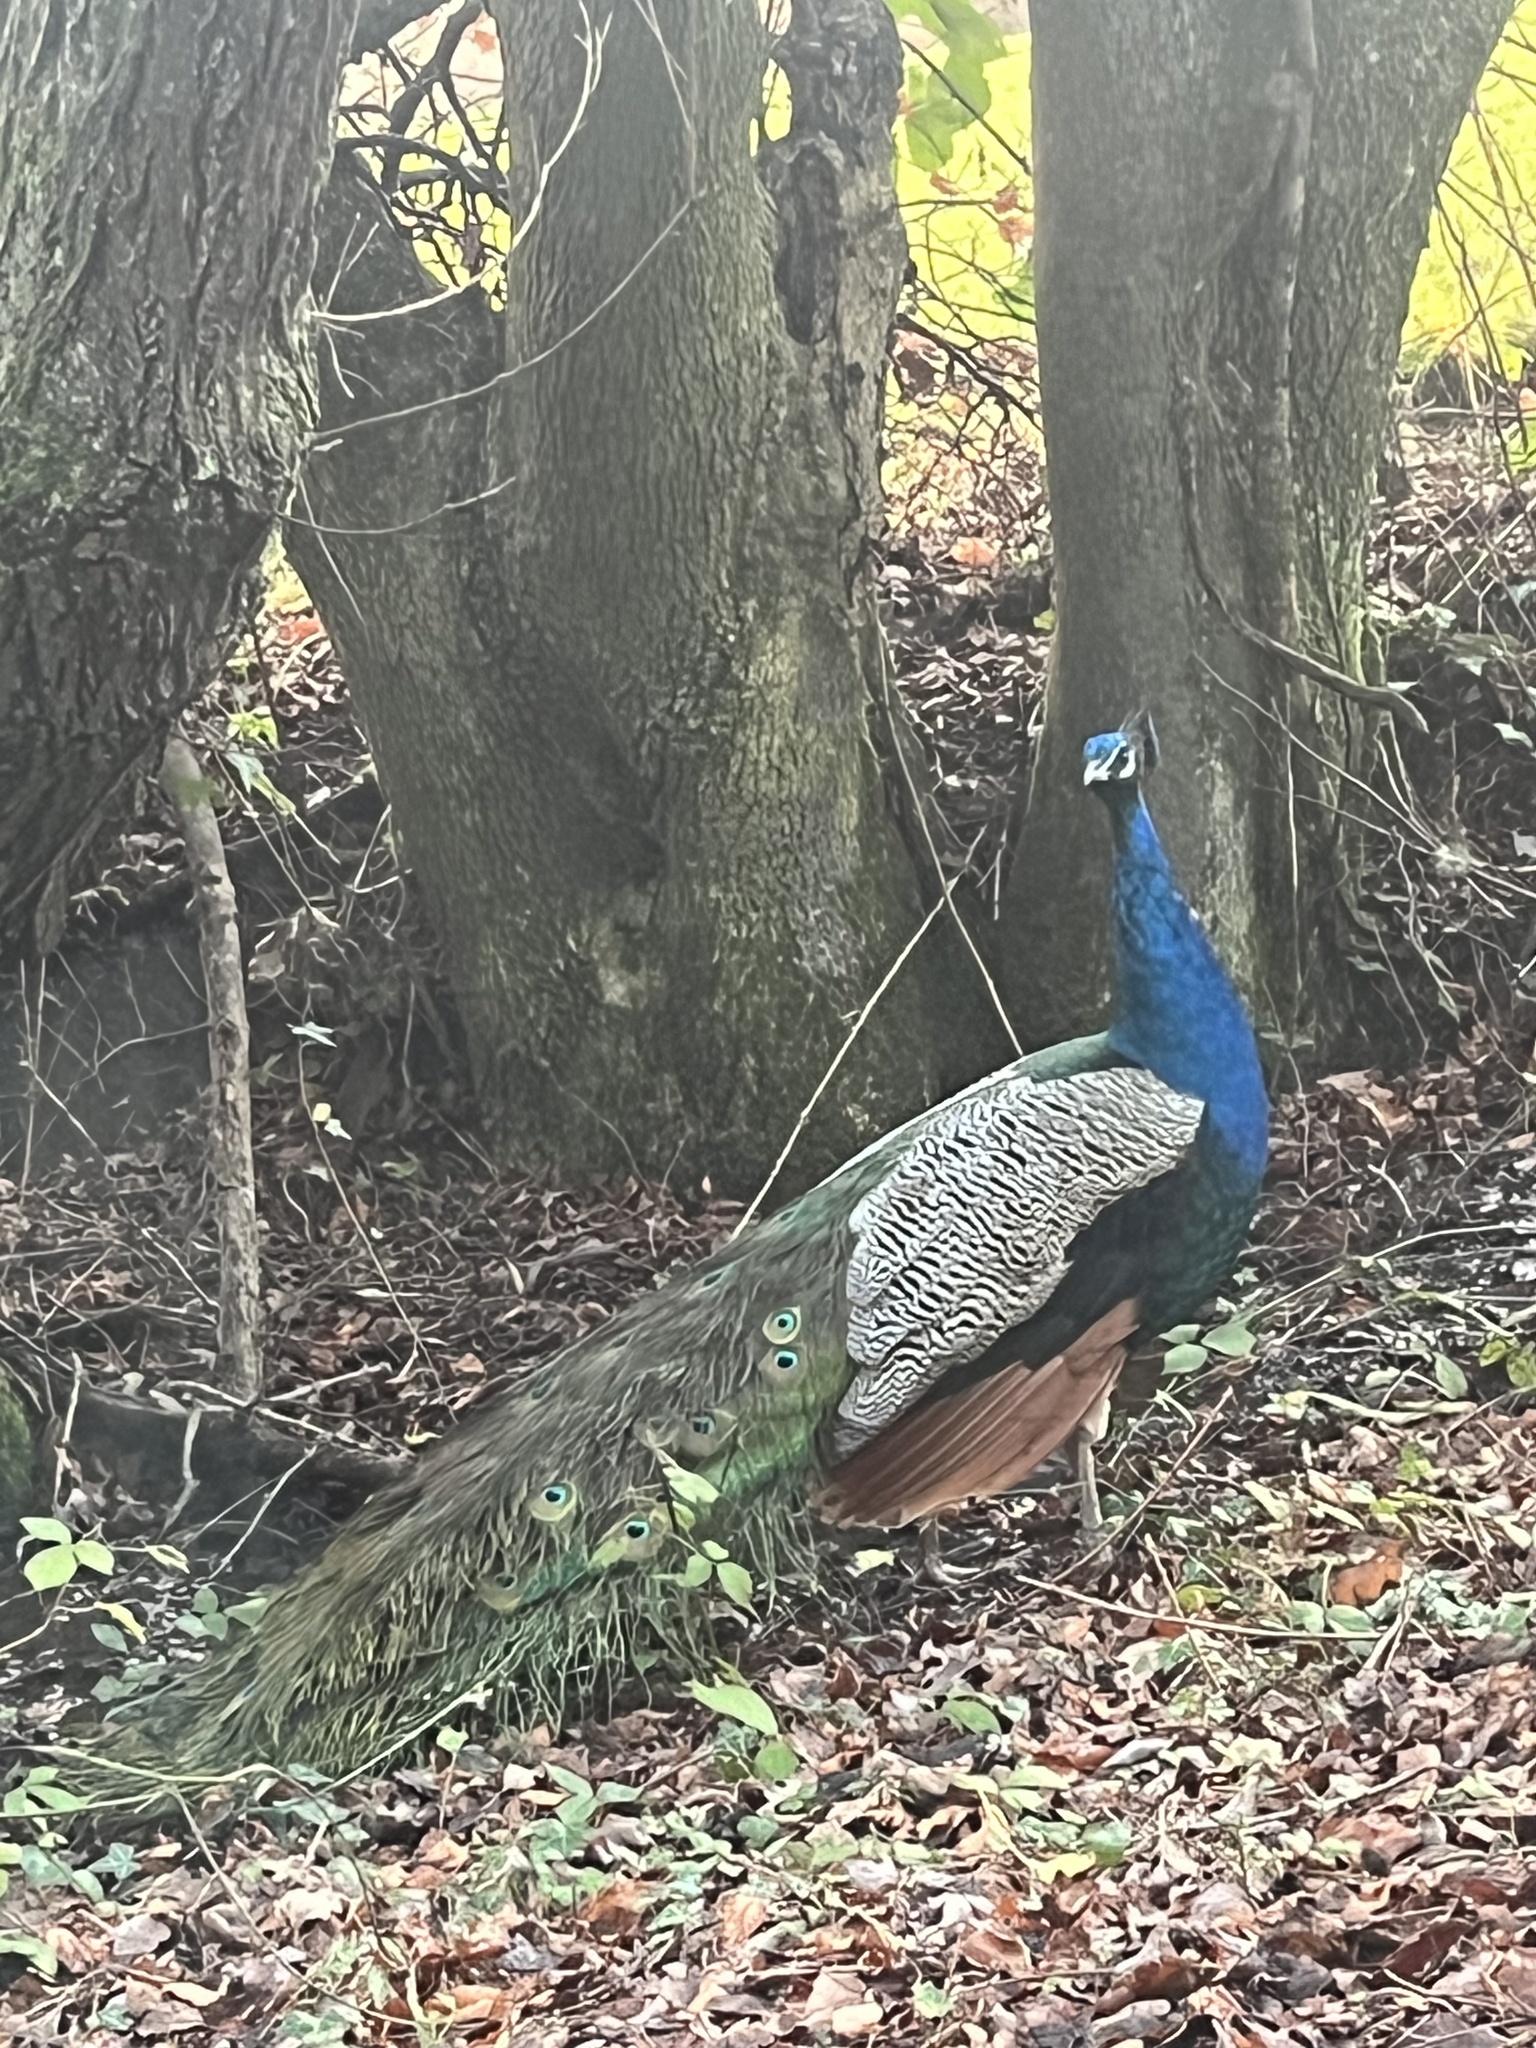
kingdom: Animalia
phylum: Chordata
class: Aves
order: Galliformes
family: Phasianidae
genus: Pavo
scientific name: Pavo cristatus
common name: Indian peafowl
